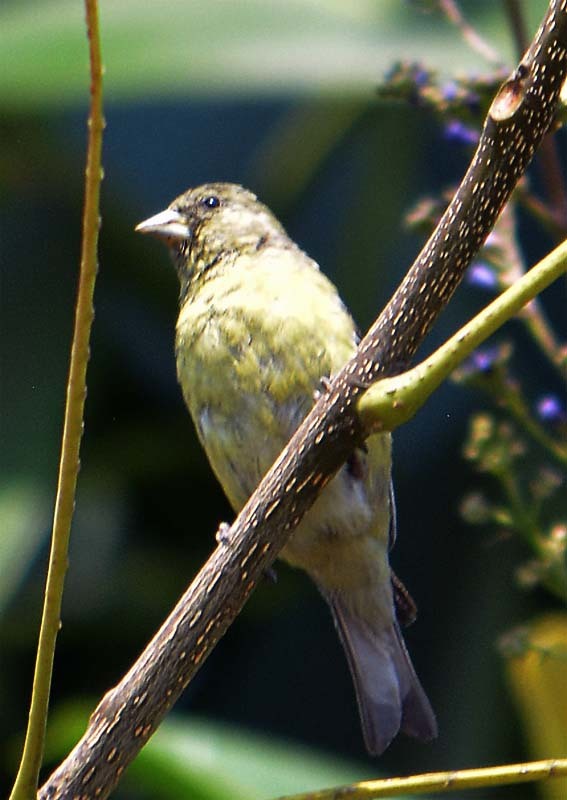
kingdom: Animalia
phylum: Chordata
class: Aves
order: Passeriformes
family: Fringillidae
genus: Spinus
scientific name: Spinus psaltria
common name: Lesser goldfinch
